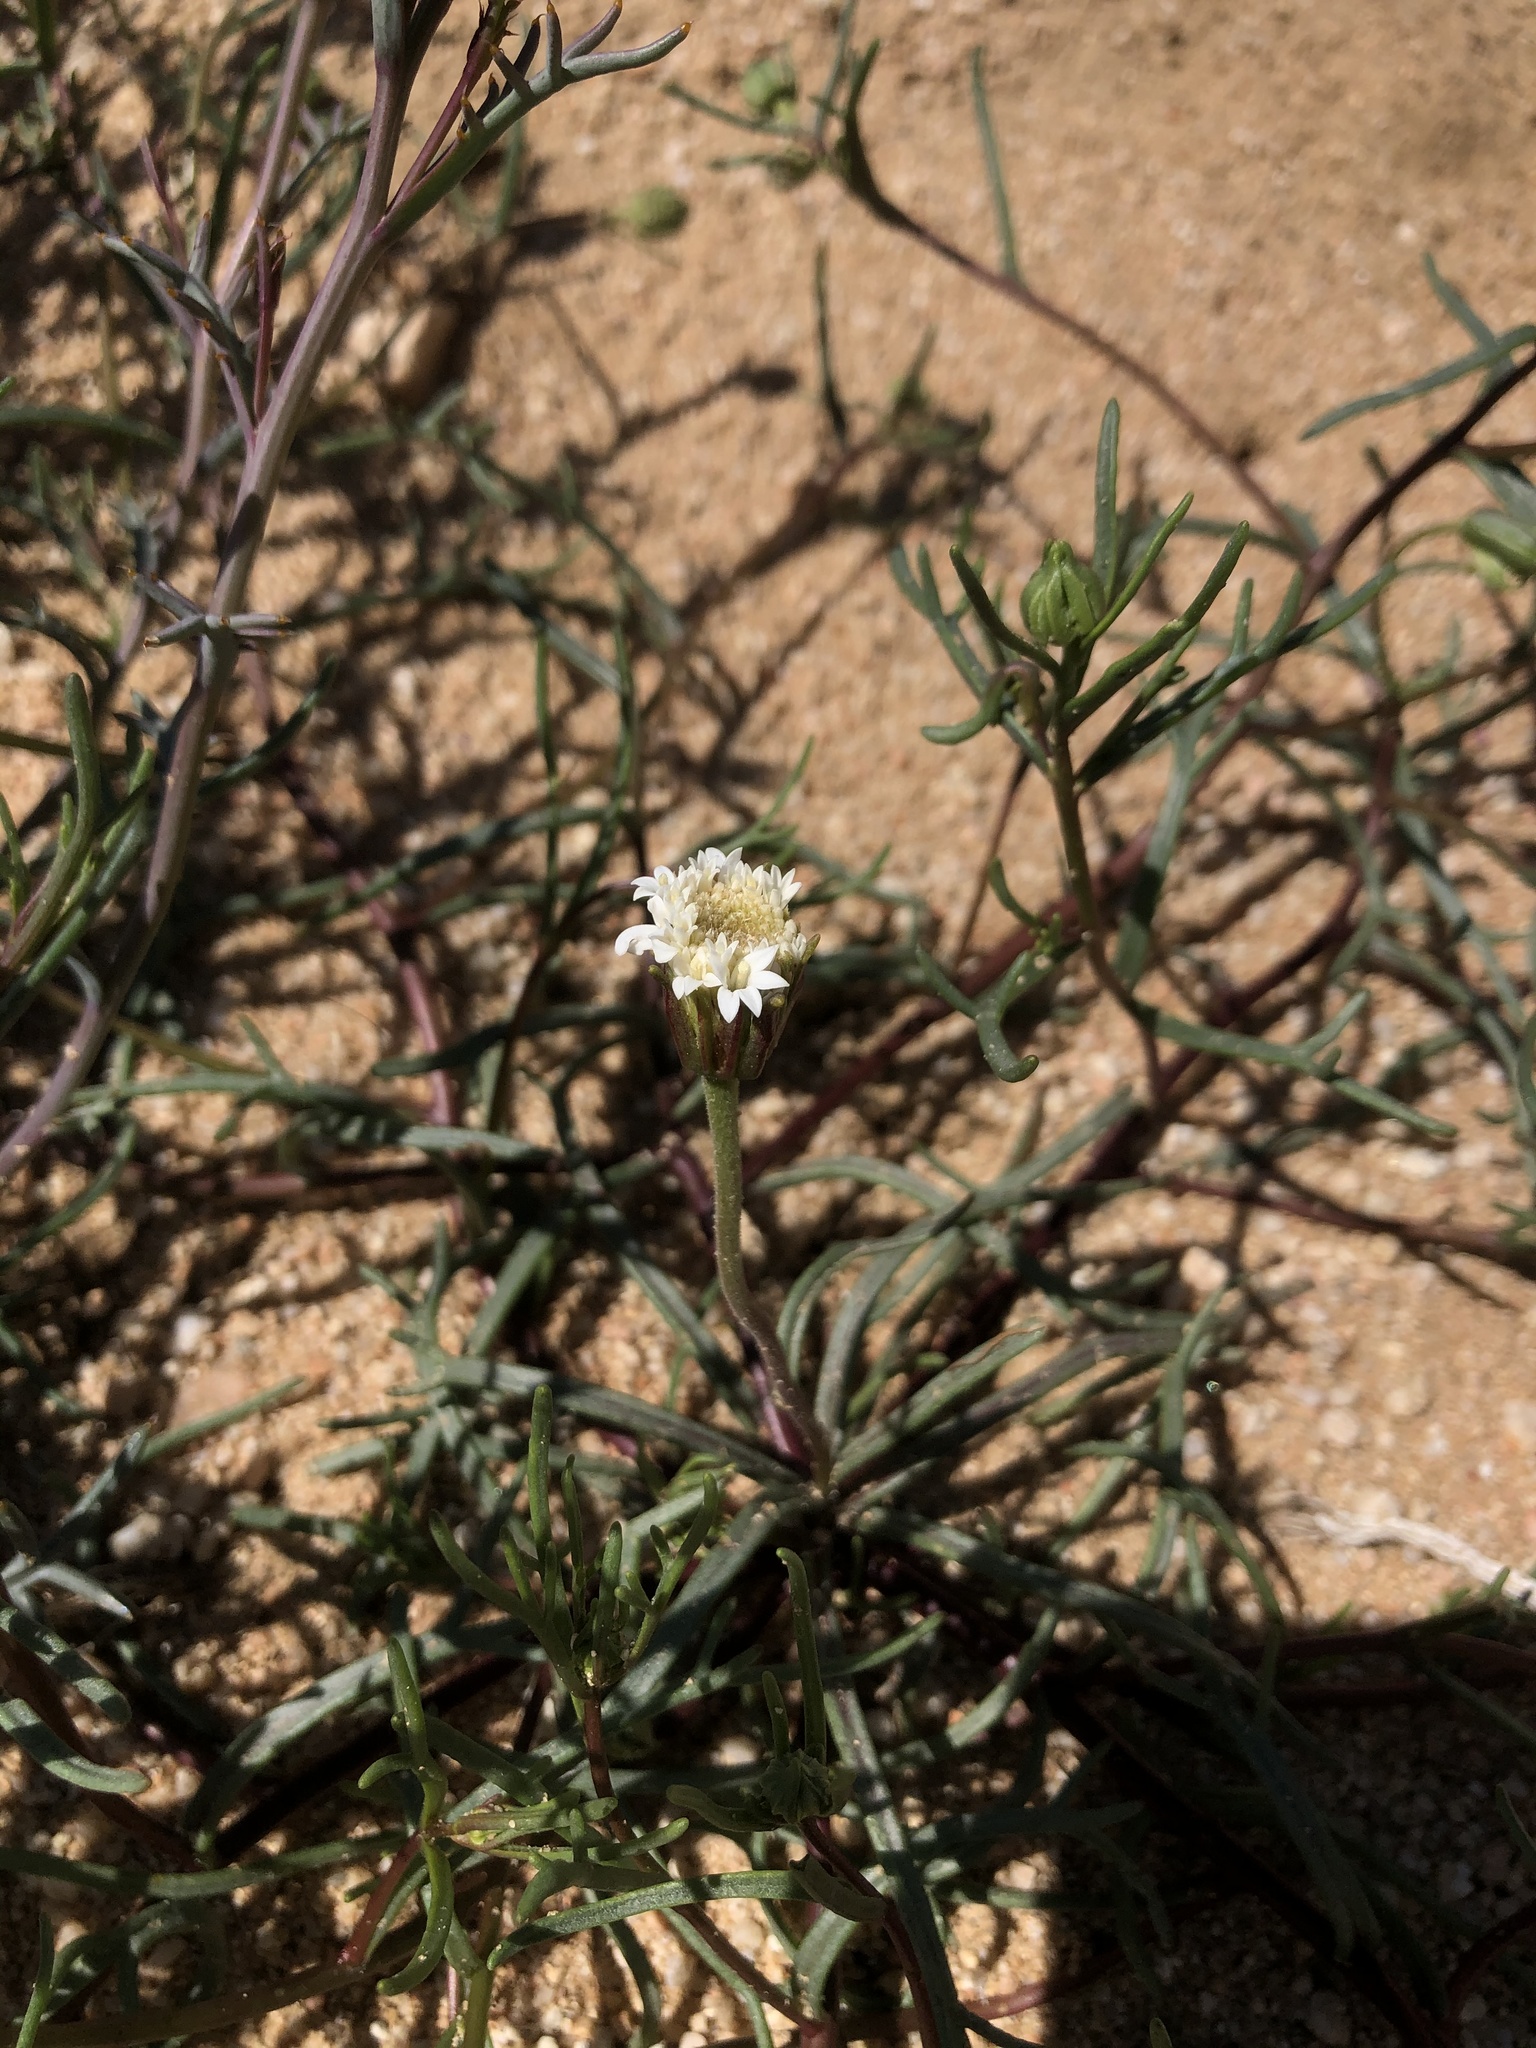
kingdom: Plantae
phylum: Tracheophyta
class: Magnoliopsida
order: Asterales
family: Asteraceae
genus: Chaenactis
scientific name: Chaenactis xantiana
